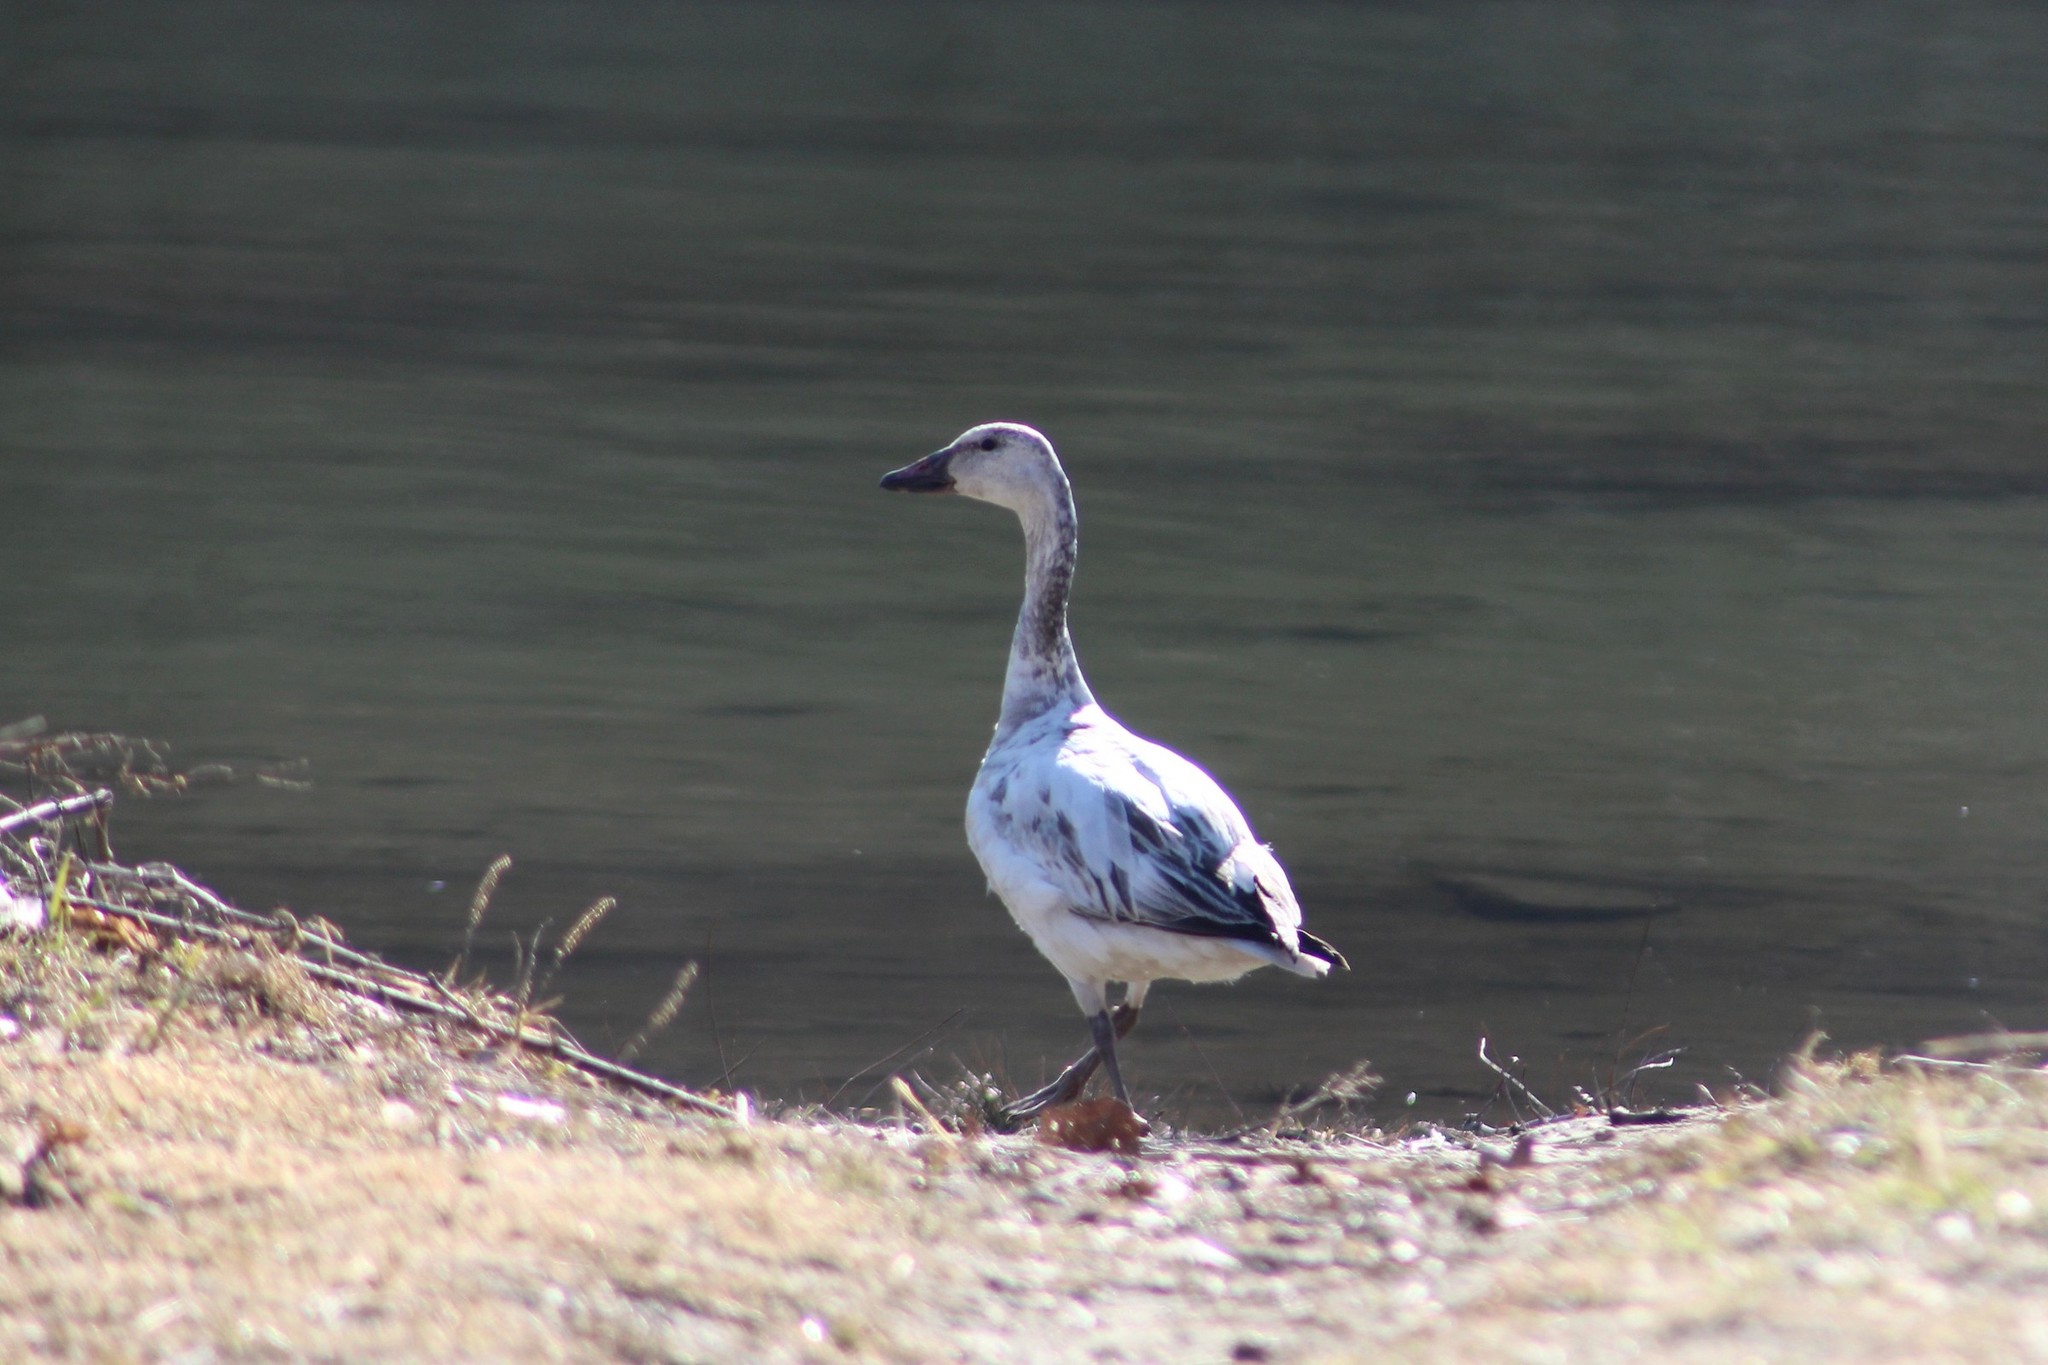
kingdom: Animalia
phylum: Chordata
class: Aves
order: Anseriformes
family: Anatidae
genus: Anser
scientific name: Anser caerulescens
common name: Snow goose
